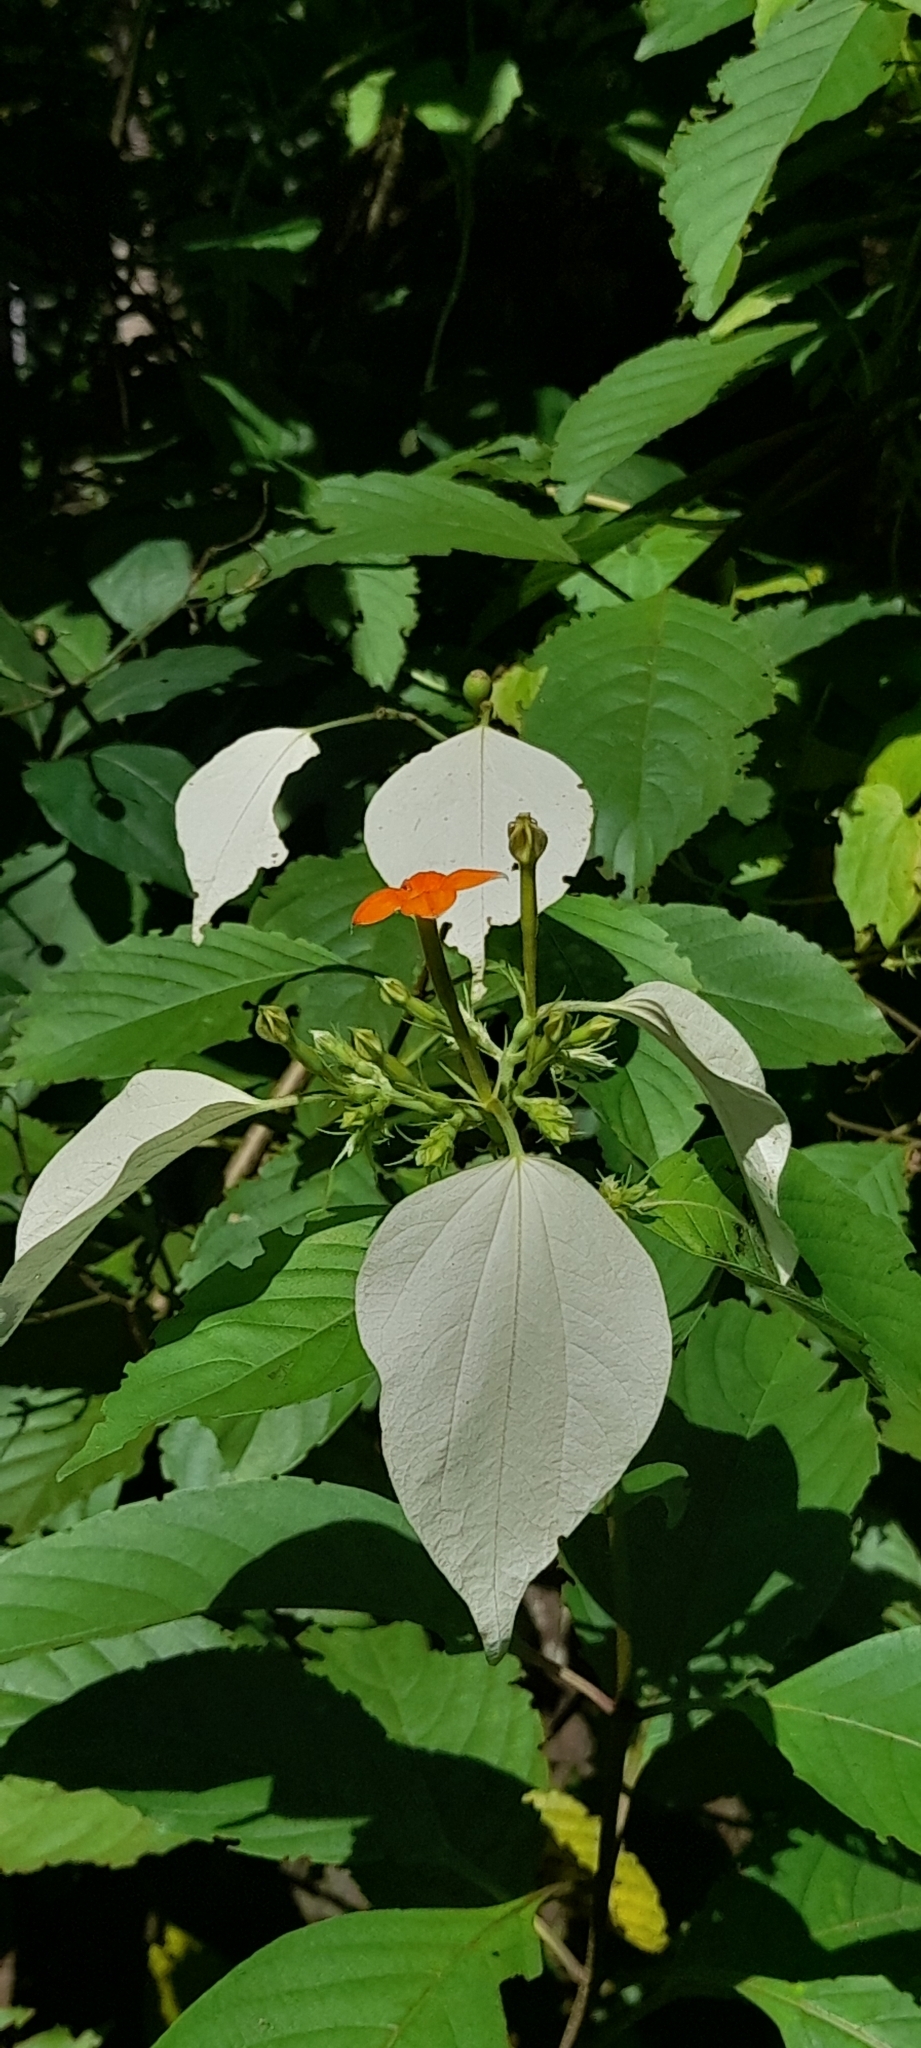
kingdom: Plantae
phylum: Tracheophyta
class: Magnoliopsida
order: Gentianales
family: Rubiaceae
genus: Mussaenda
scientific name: Mussaenda frondosa
